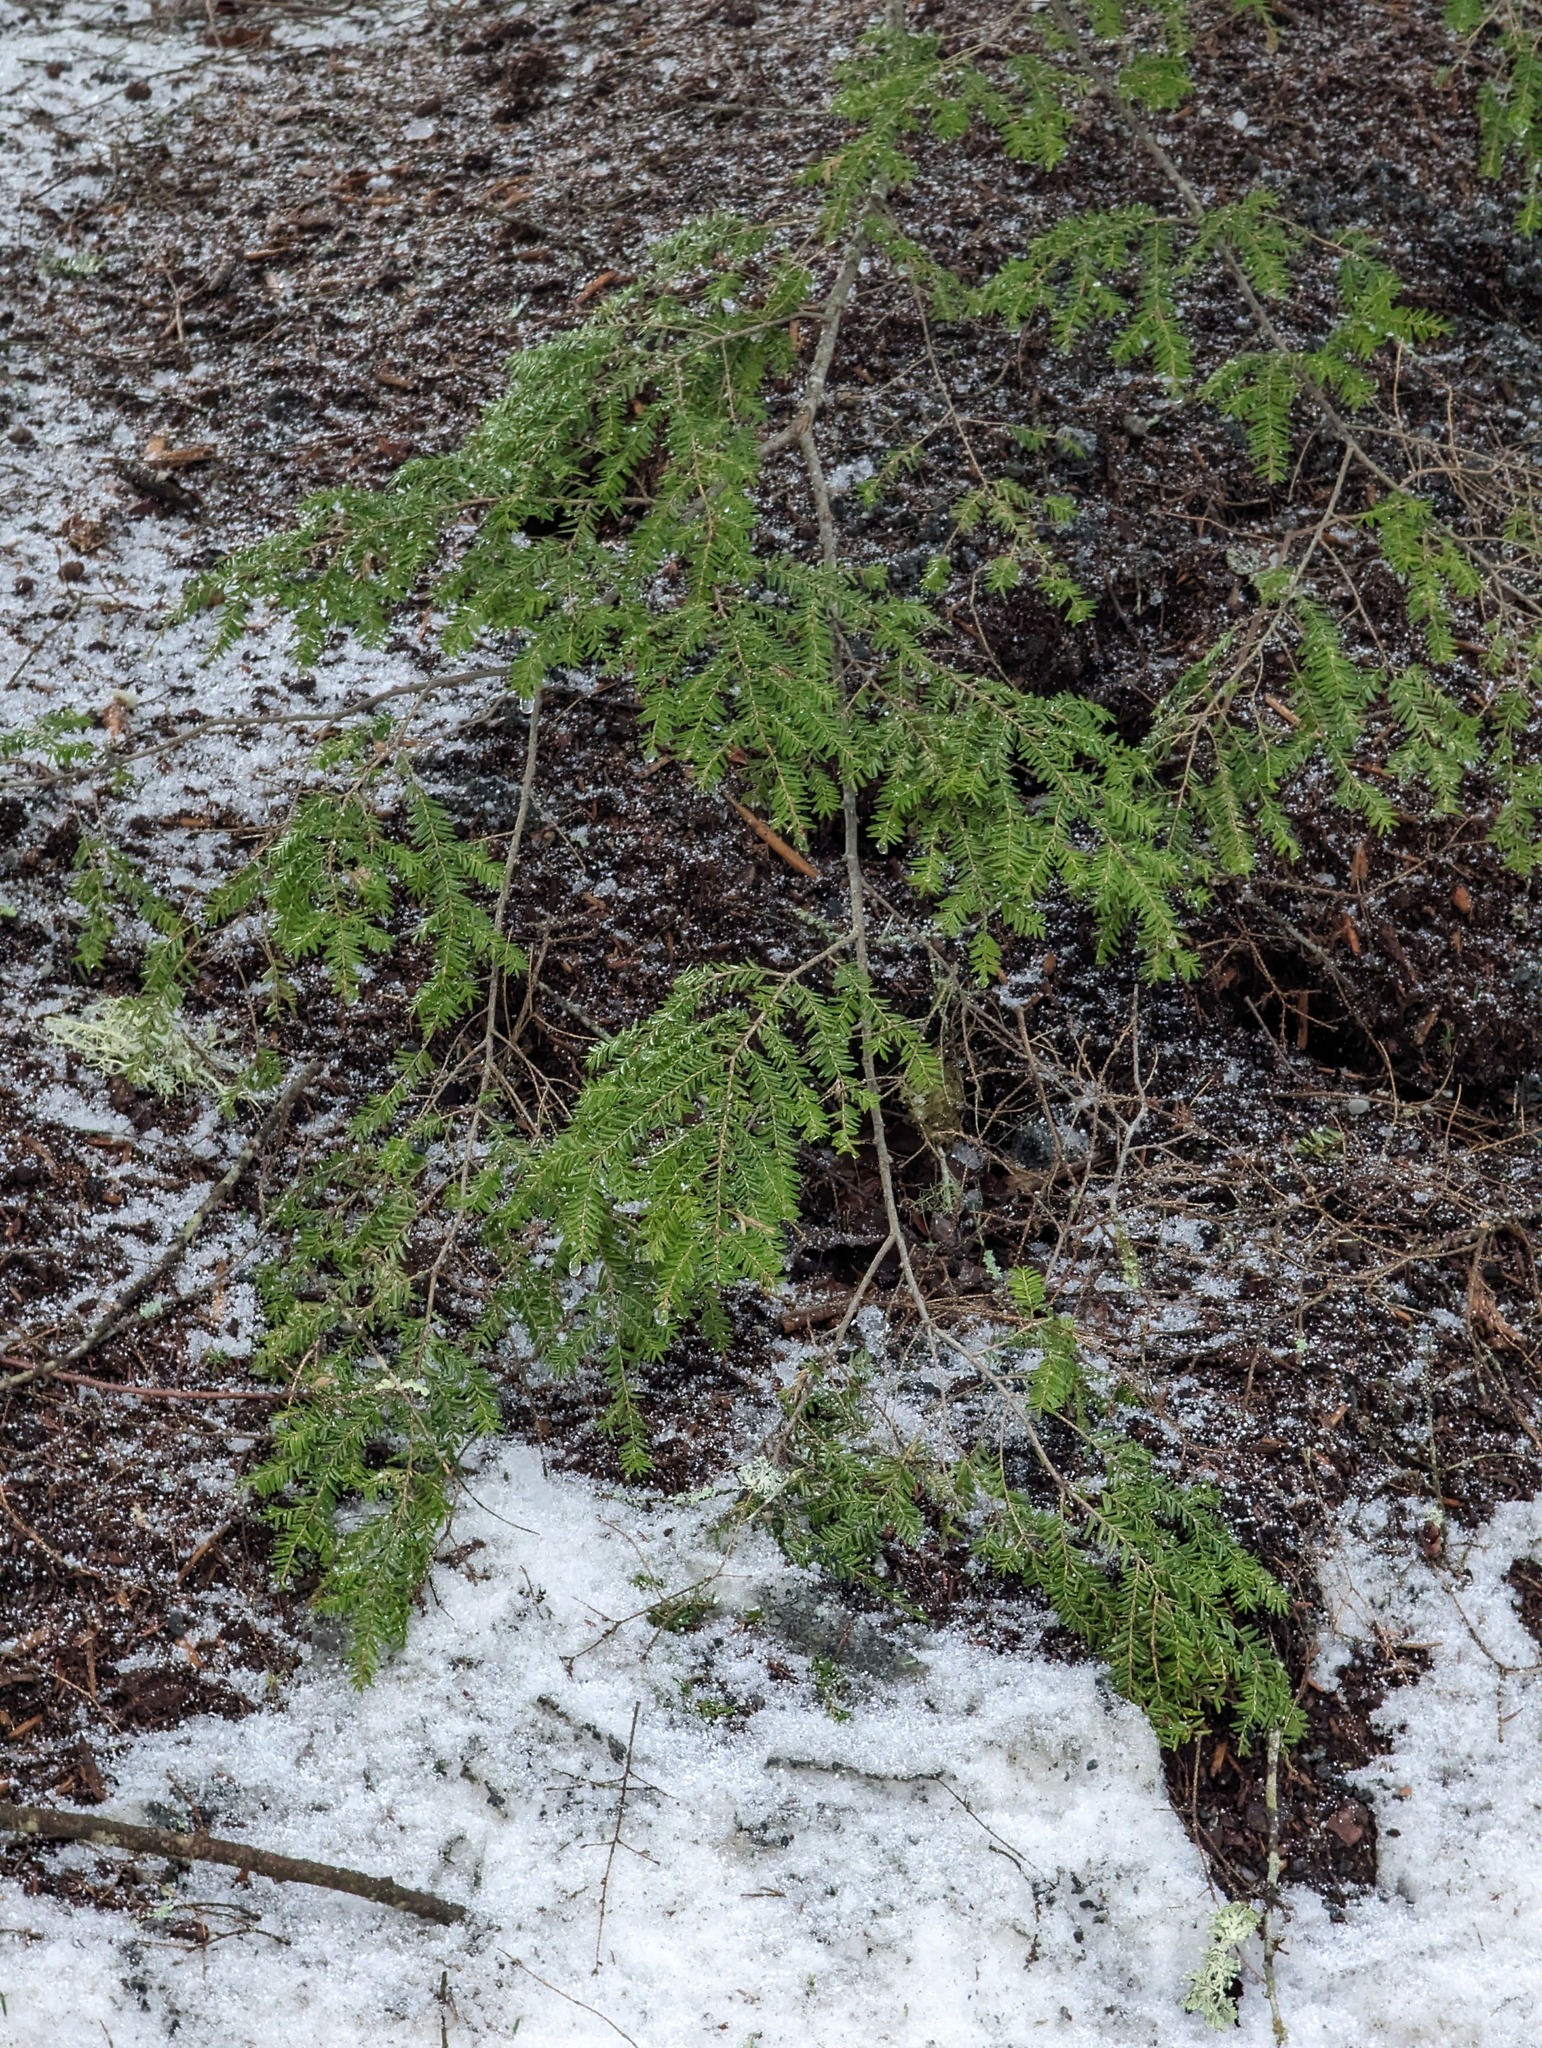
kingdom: Plantae
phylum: Tracheophyta
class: Pinopsida
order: Pinales
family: Pinaceae
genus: Tsuga
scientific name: Tsuga canadensis
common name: Eastern hemlock
